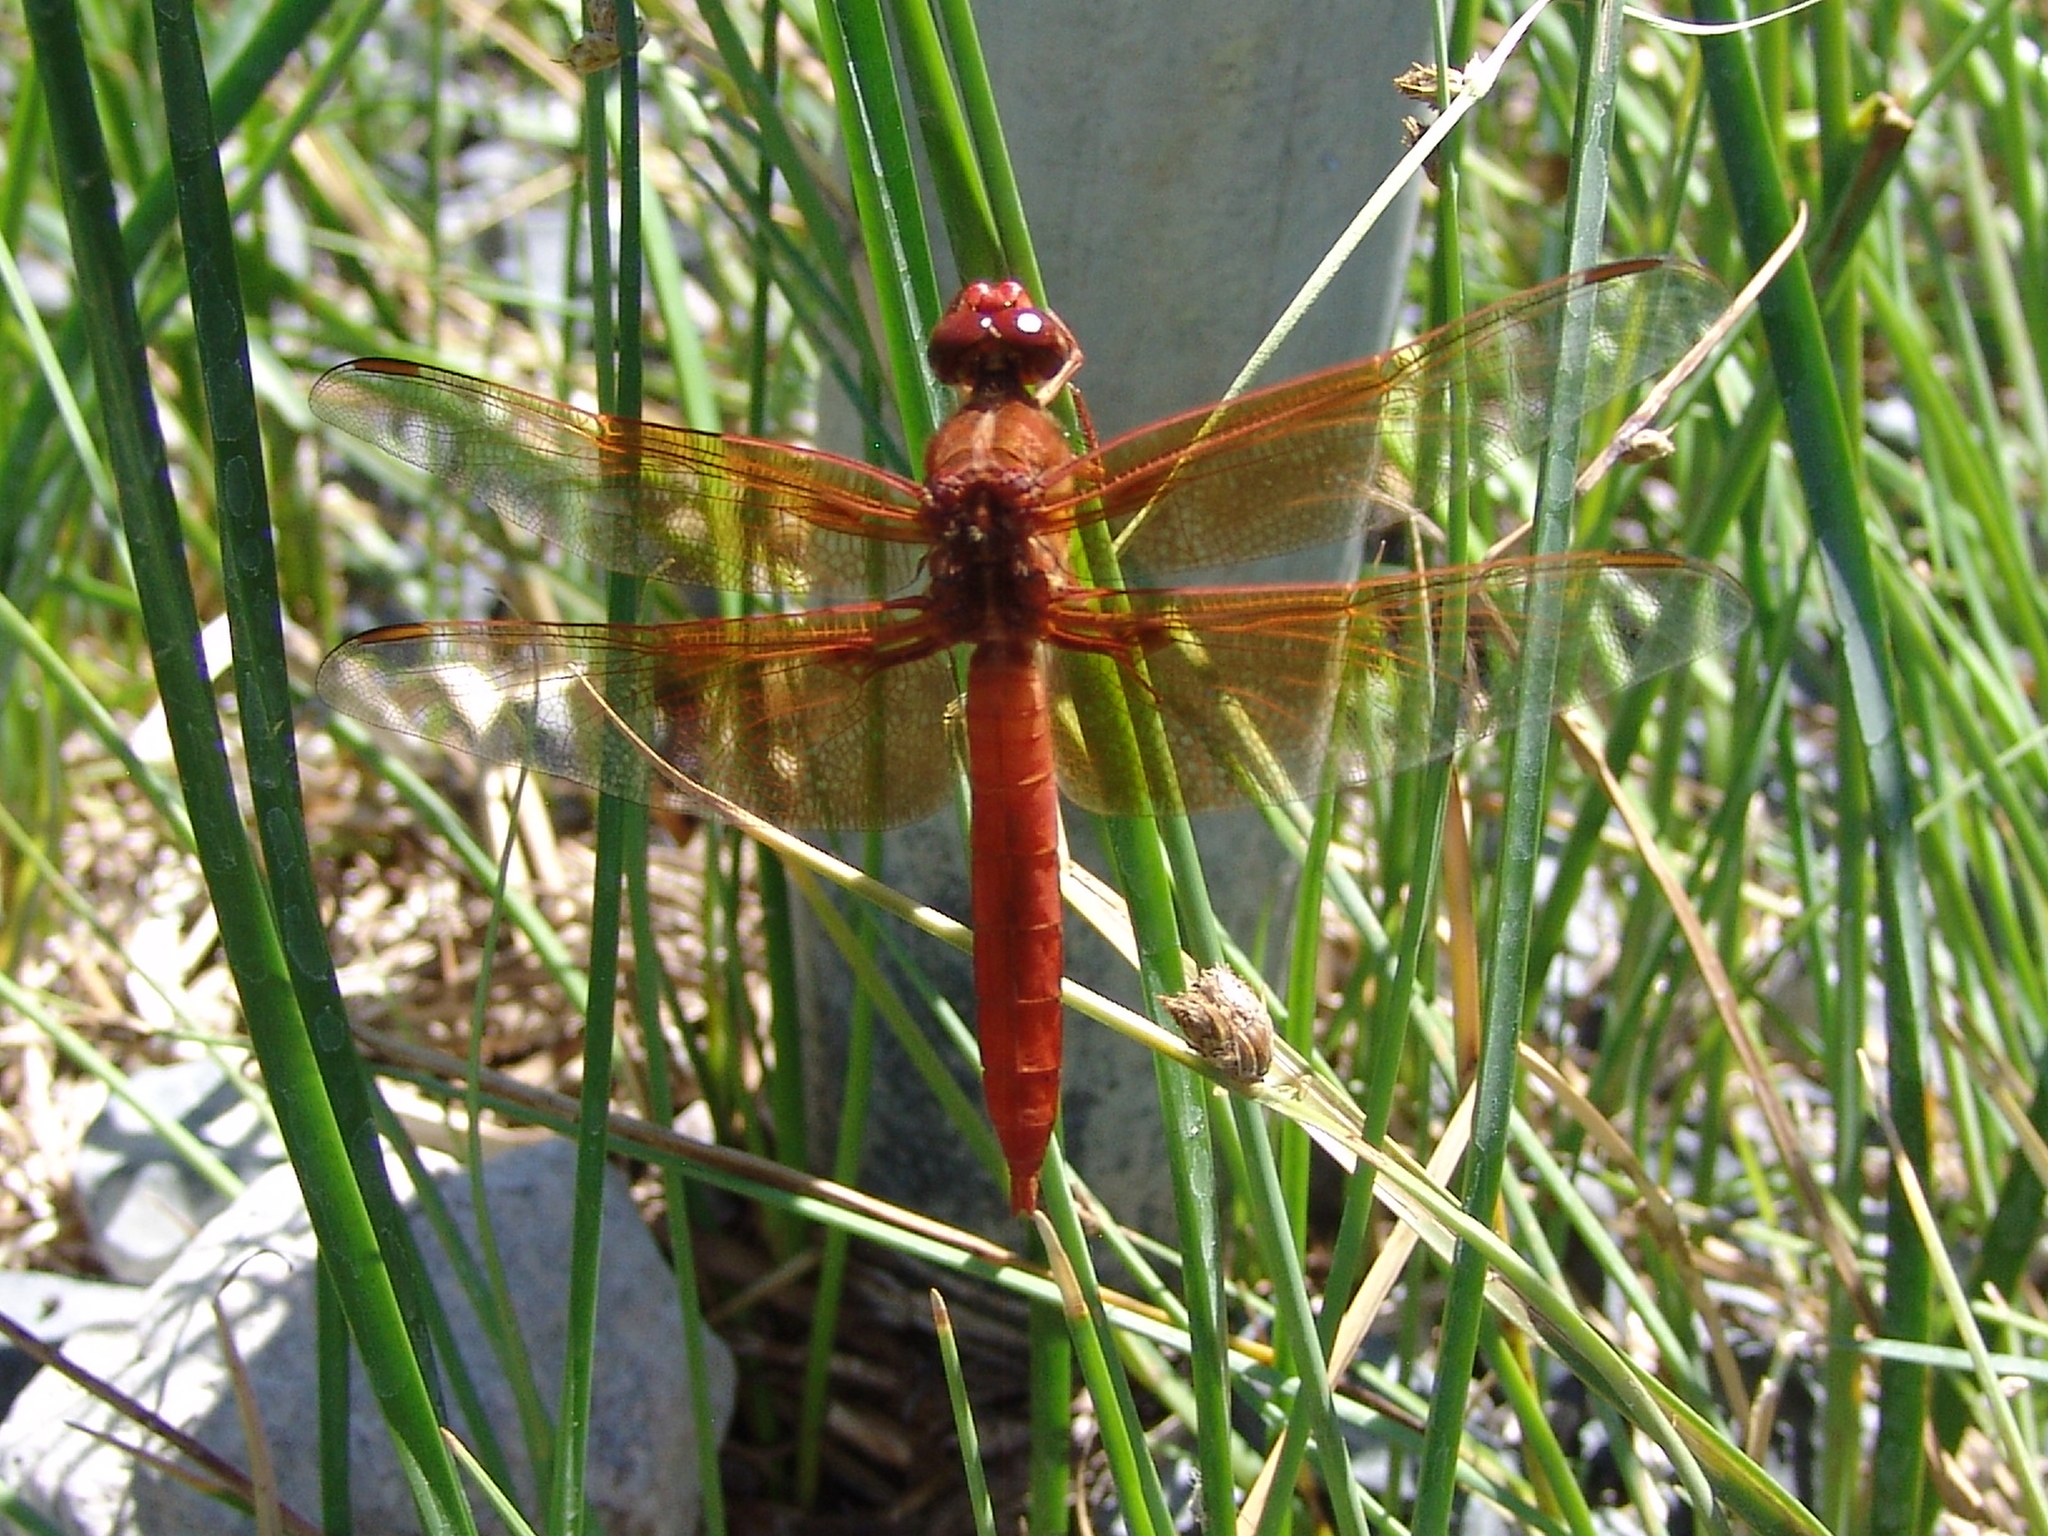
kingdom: Animalia
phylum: Arthropoda
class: Insecta
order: Odonata
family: Libellulidae
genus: Libellula
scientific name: Libellula saturata
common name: Flame skimmer
